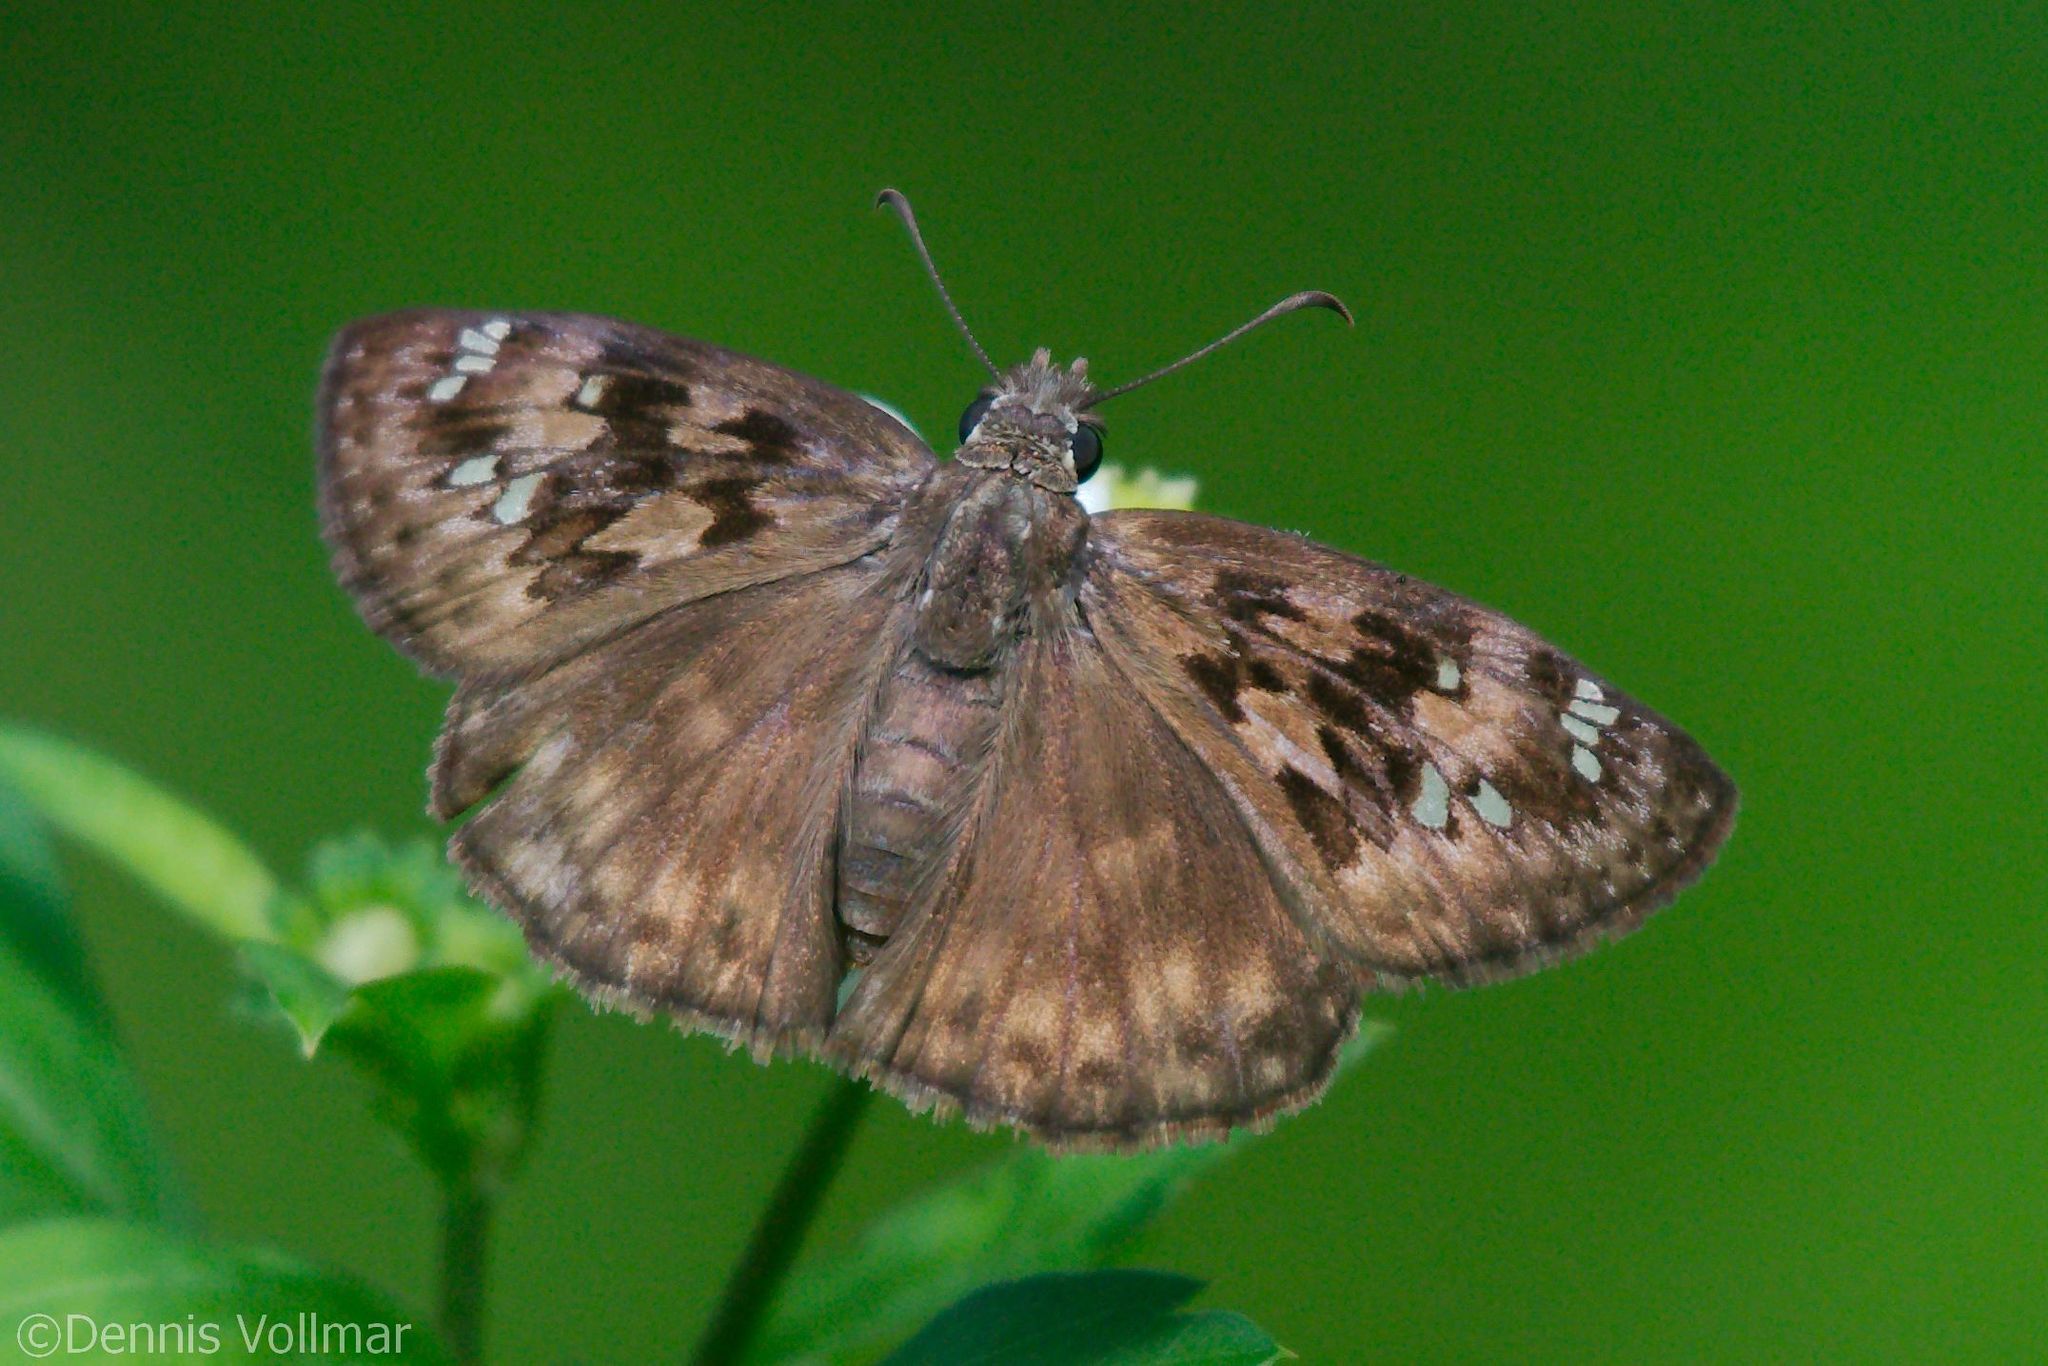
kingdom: Animalia
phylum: Arthropoda
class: Insecta
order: Lepidoptera
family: Hesperiidae
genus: Erynnis
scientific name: Erynnis horatius
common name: Horace's duskywing
